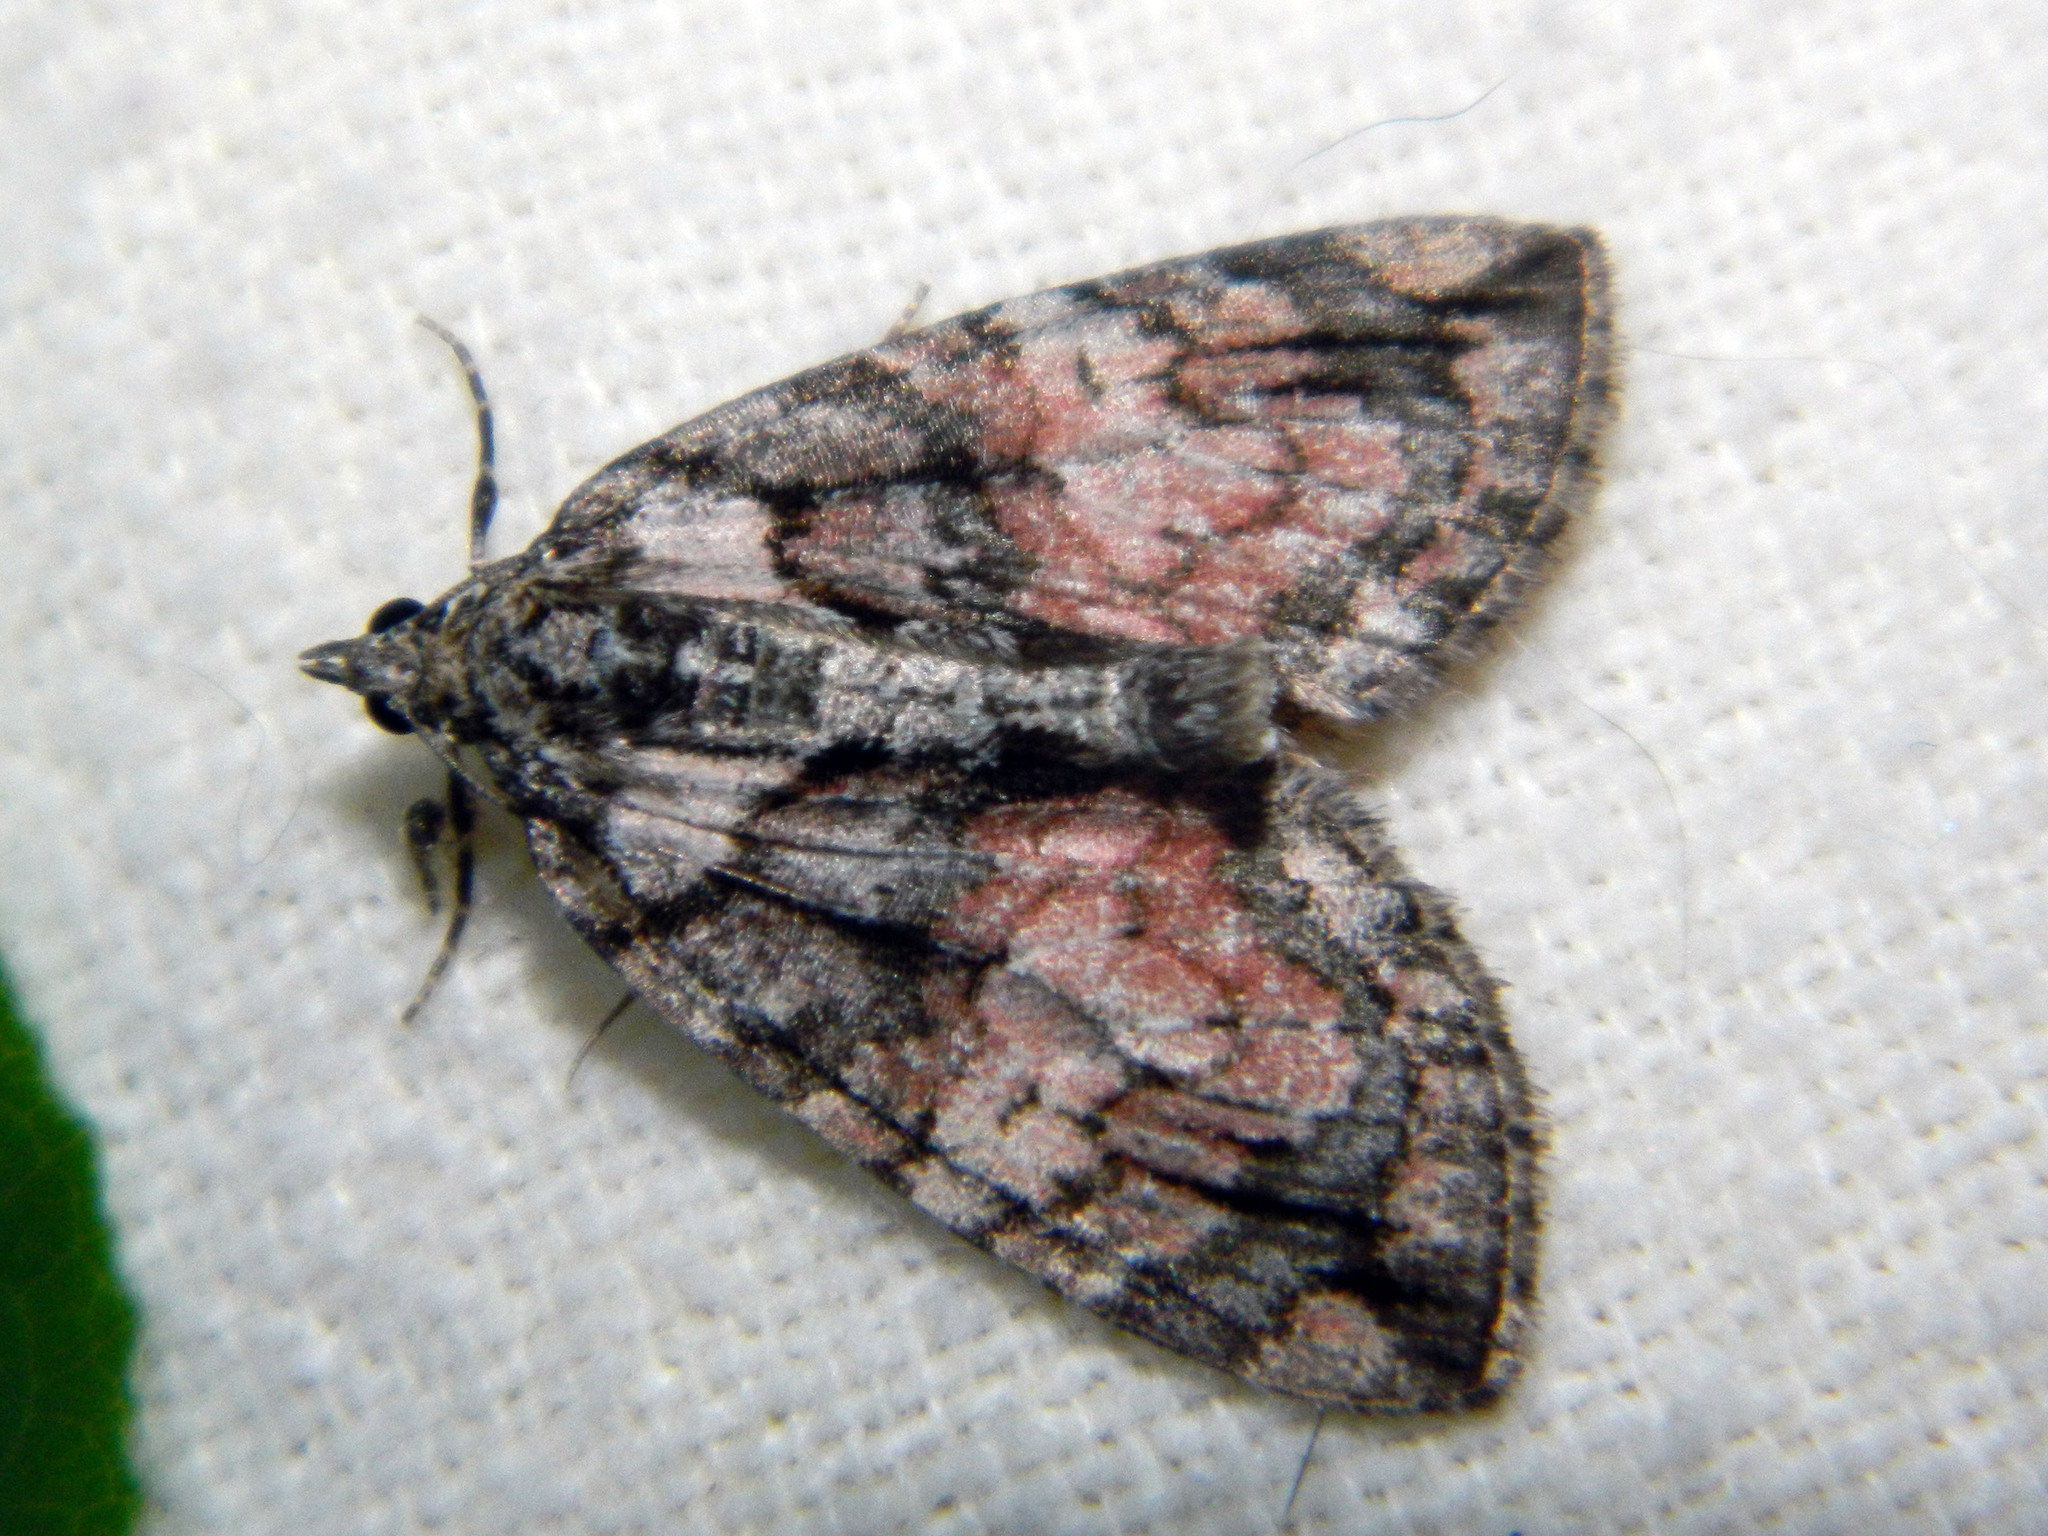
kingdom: Animalia
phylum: Arthropoda
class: Insecta
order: Lepidoptera
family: Geometridae
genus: Hydriomena
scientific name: Hydriomena perfracta
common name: Shattered hydriomena moth
